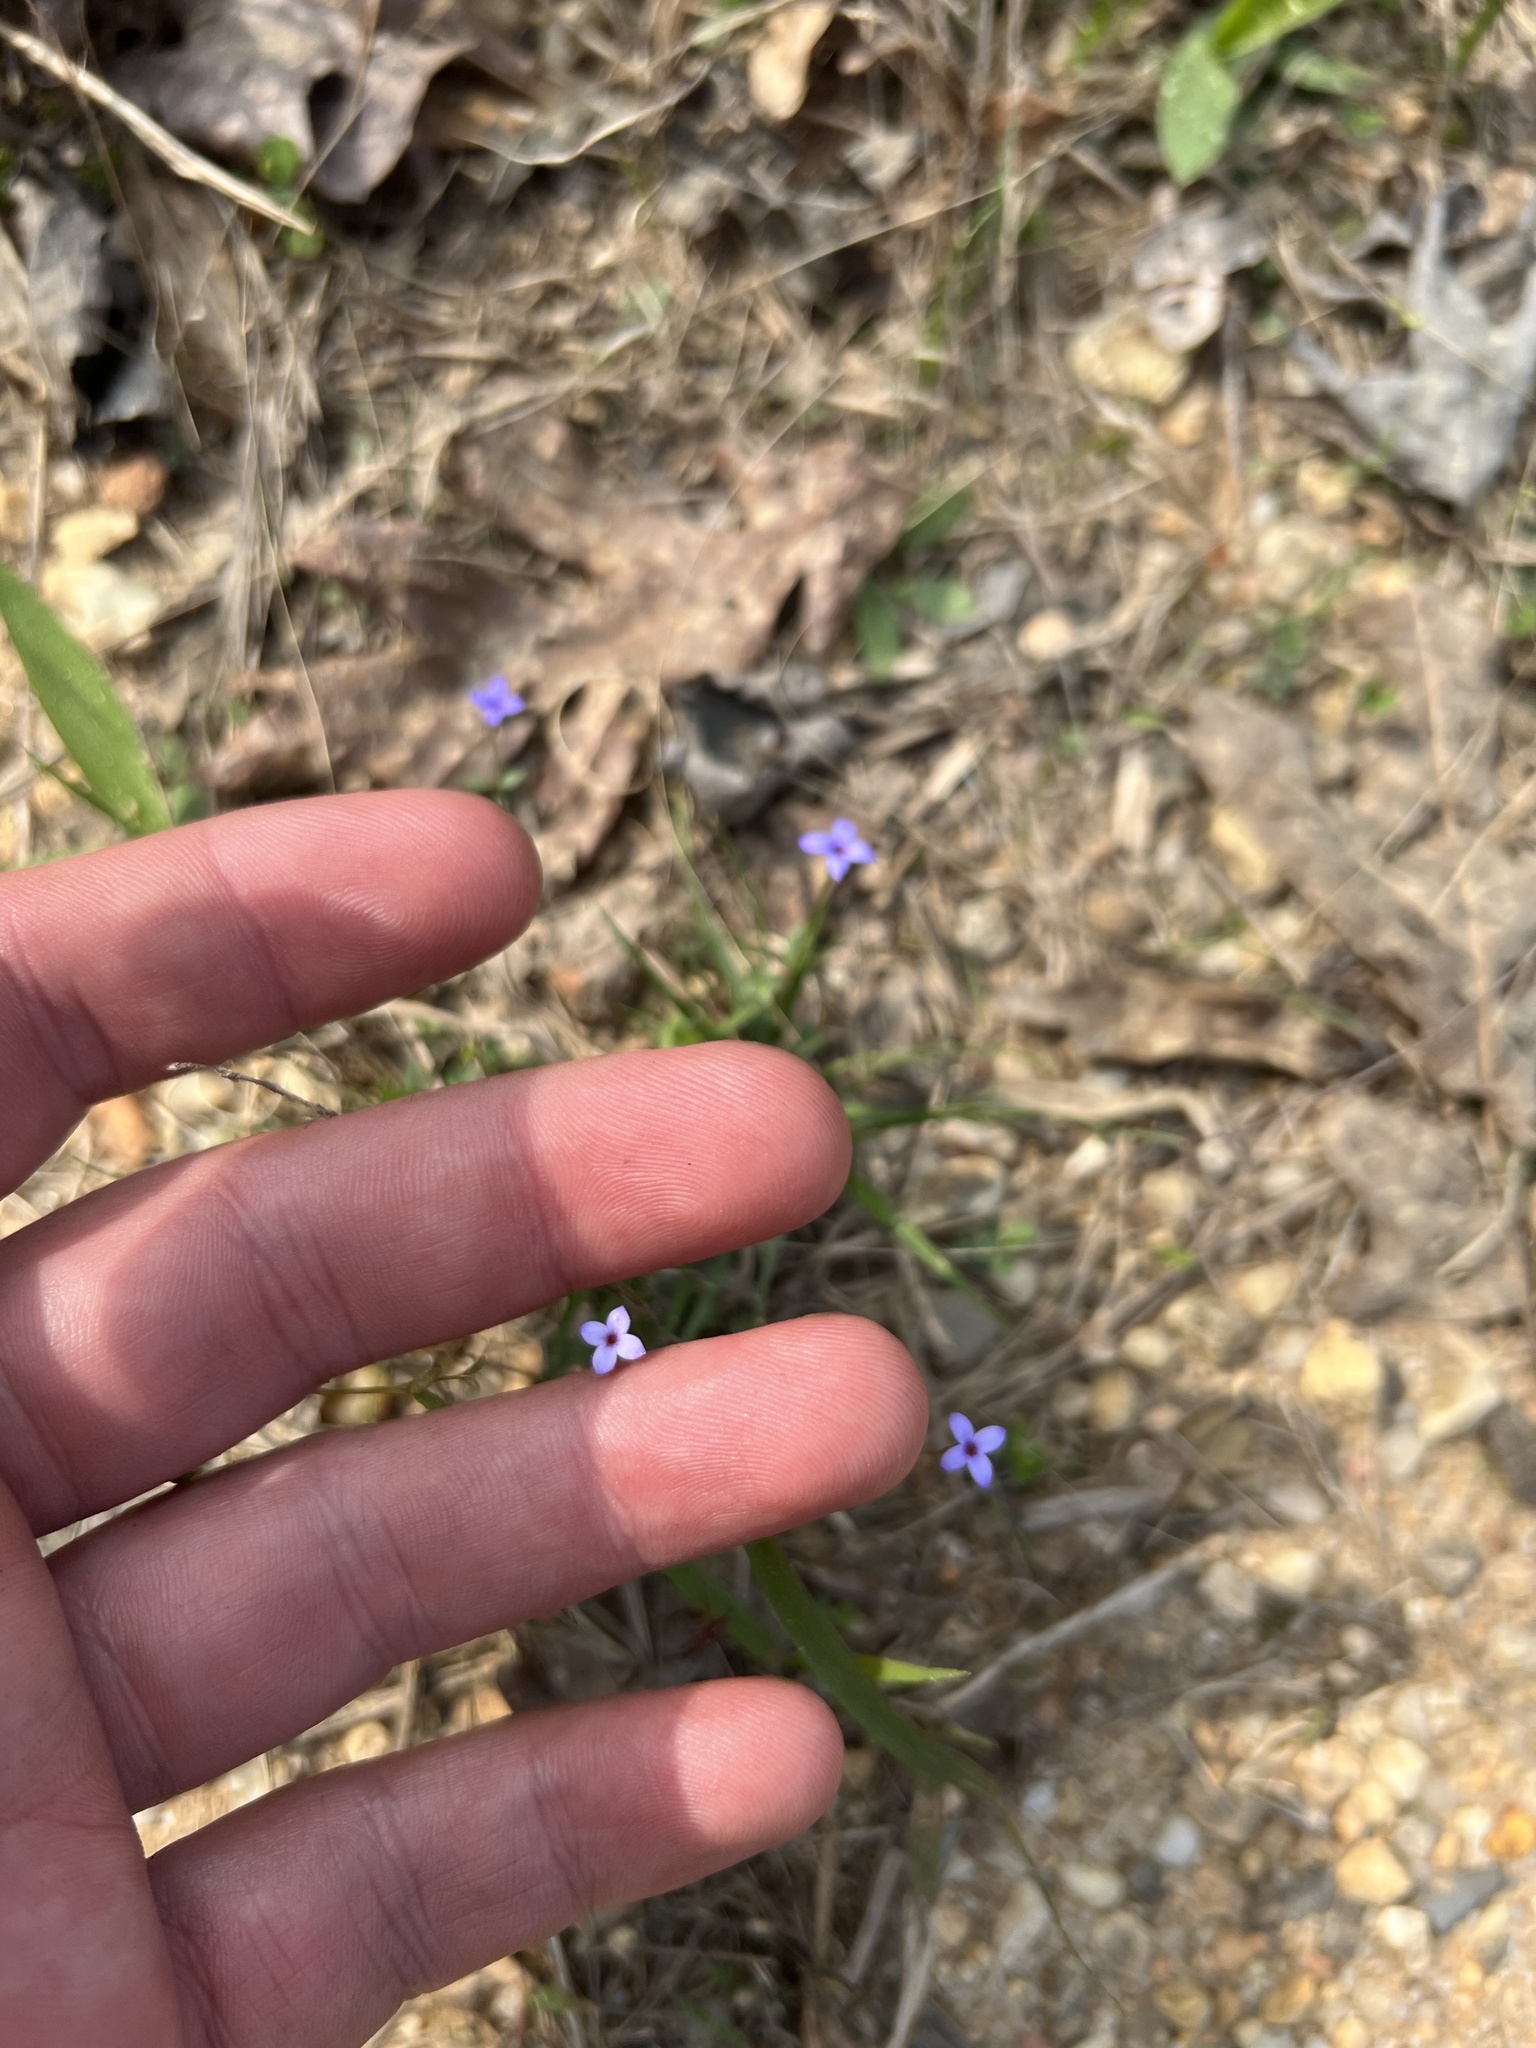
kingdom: Plantae
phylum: Tracheophyta
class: Magnoliopsida
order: Gentianales
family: Rubiaceae
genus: Houstonia
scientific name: Houstonia pusilla
